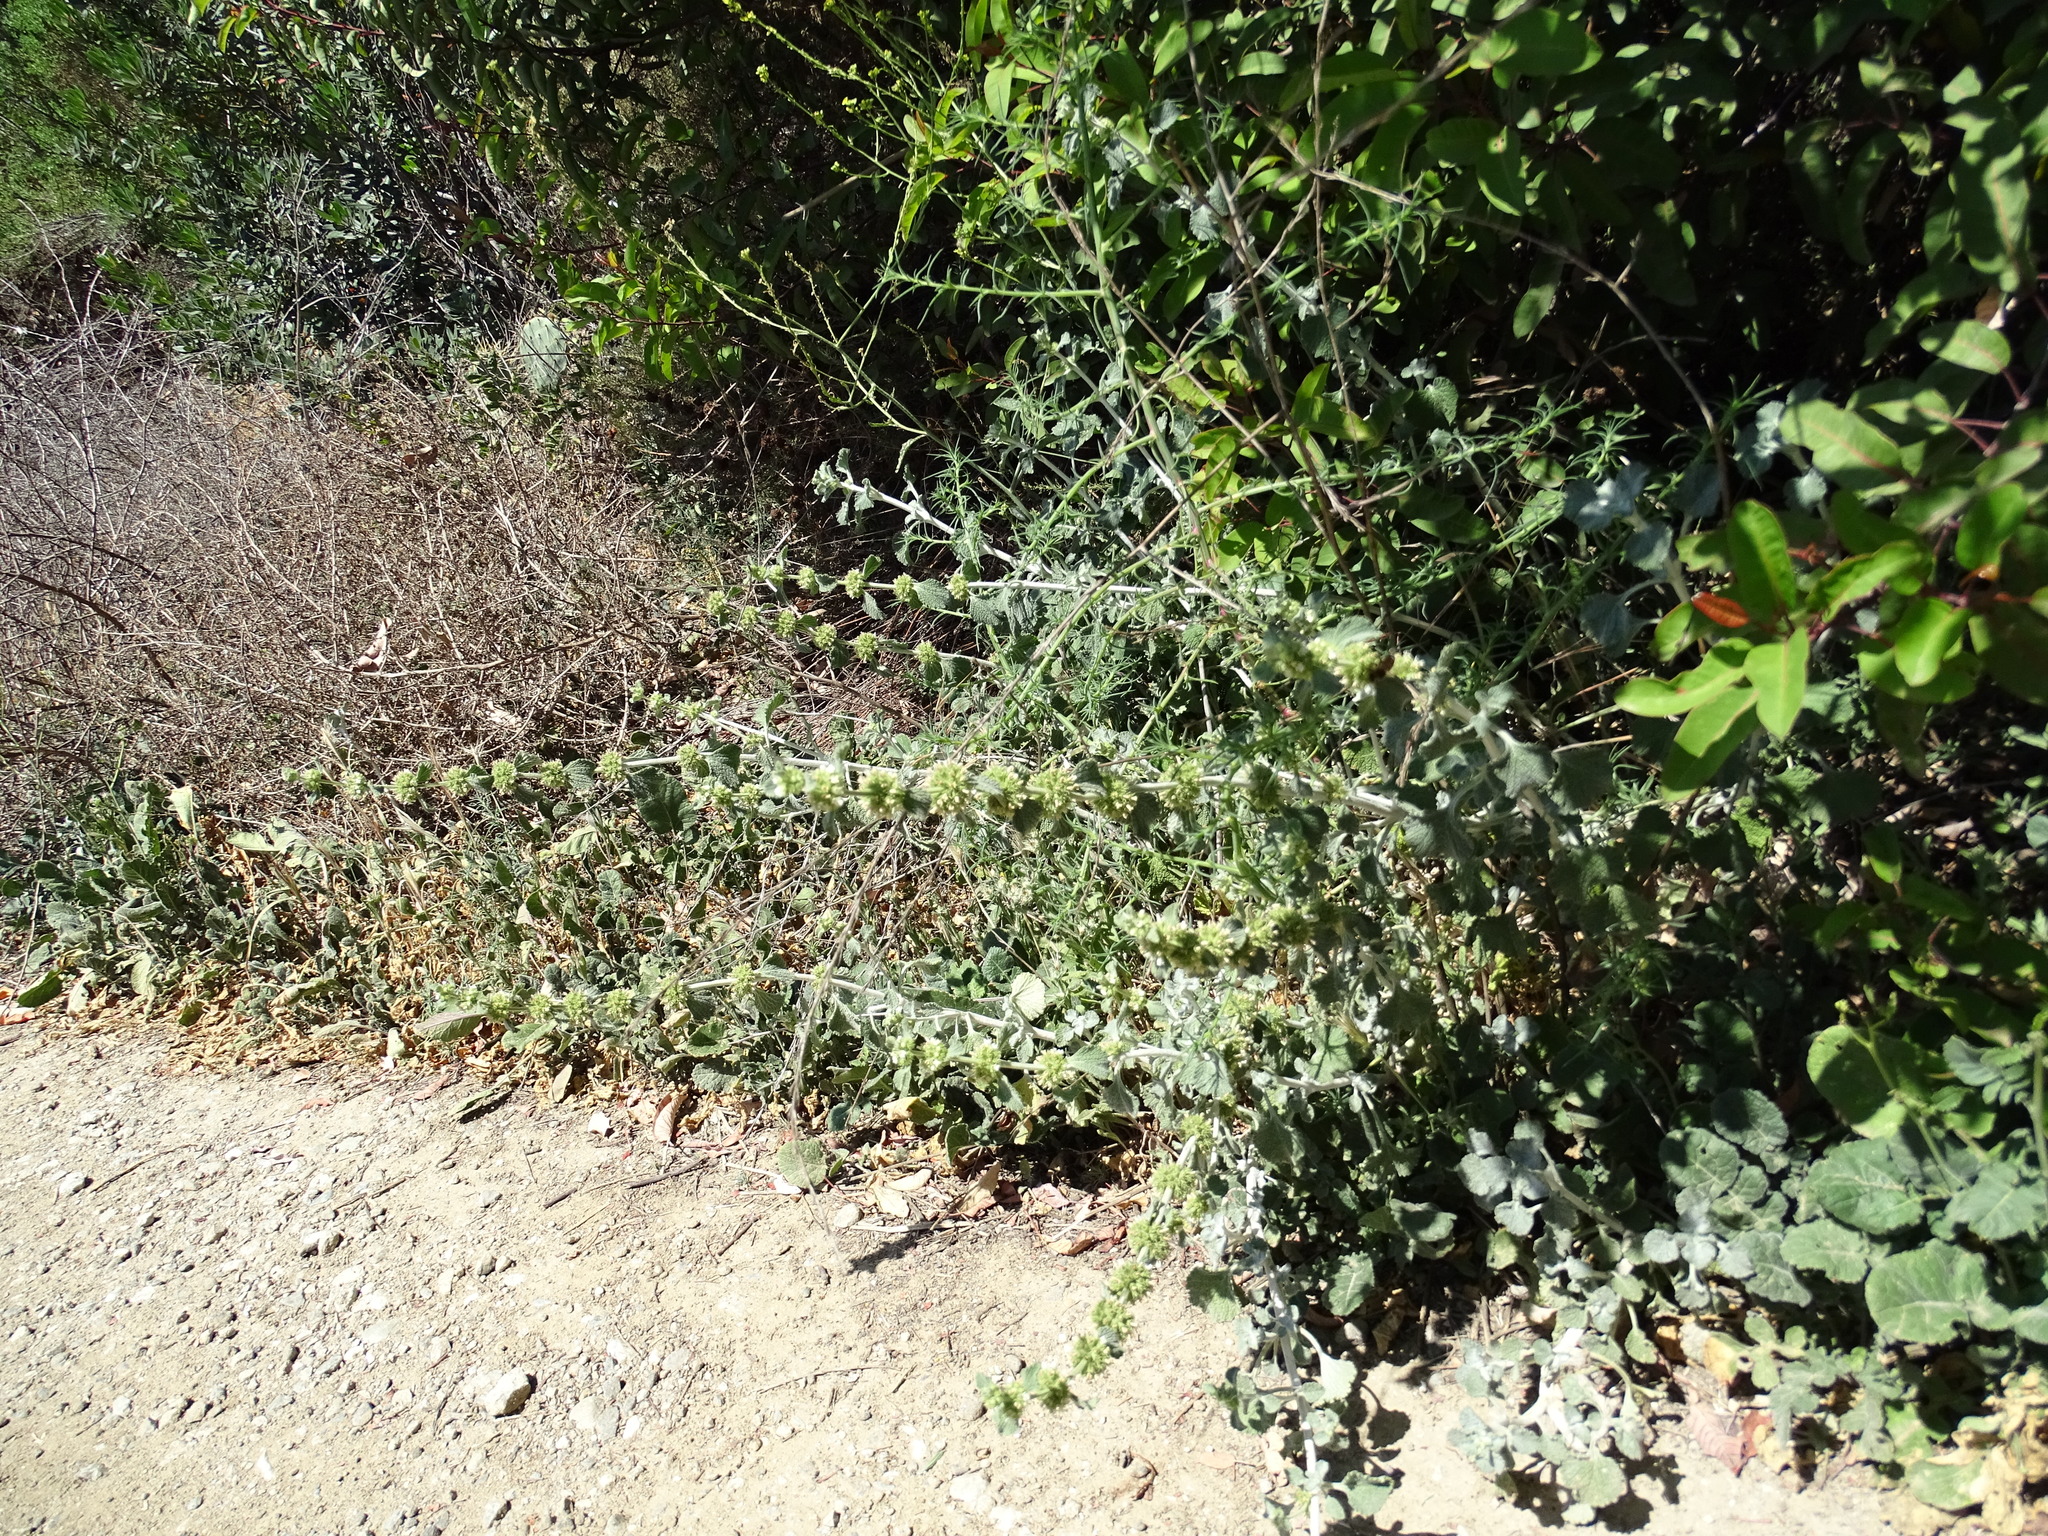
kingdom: Plantae
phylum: Tracheophyta
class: Magnoliopsida
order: Lamiales
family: Lamiaceae
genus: Marrubium
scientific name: Marrubium vulgare
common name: Horehound
